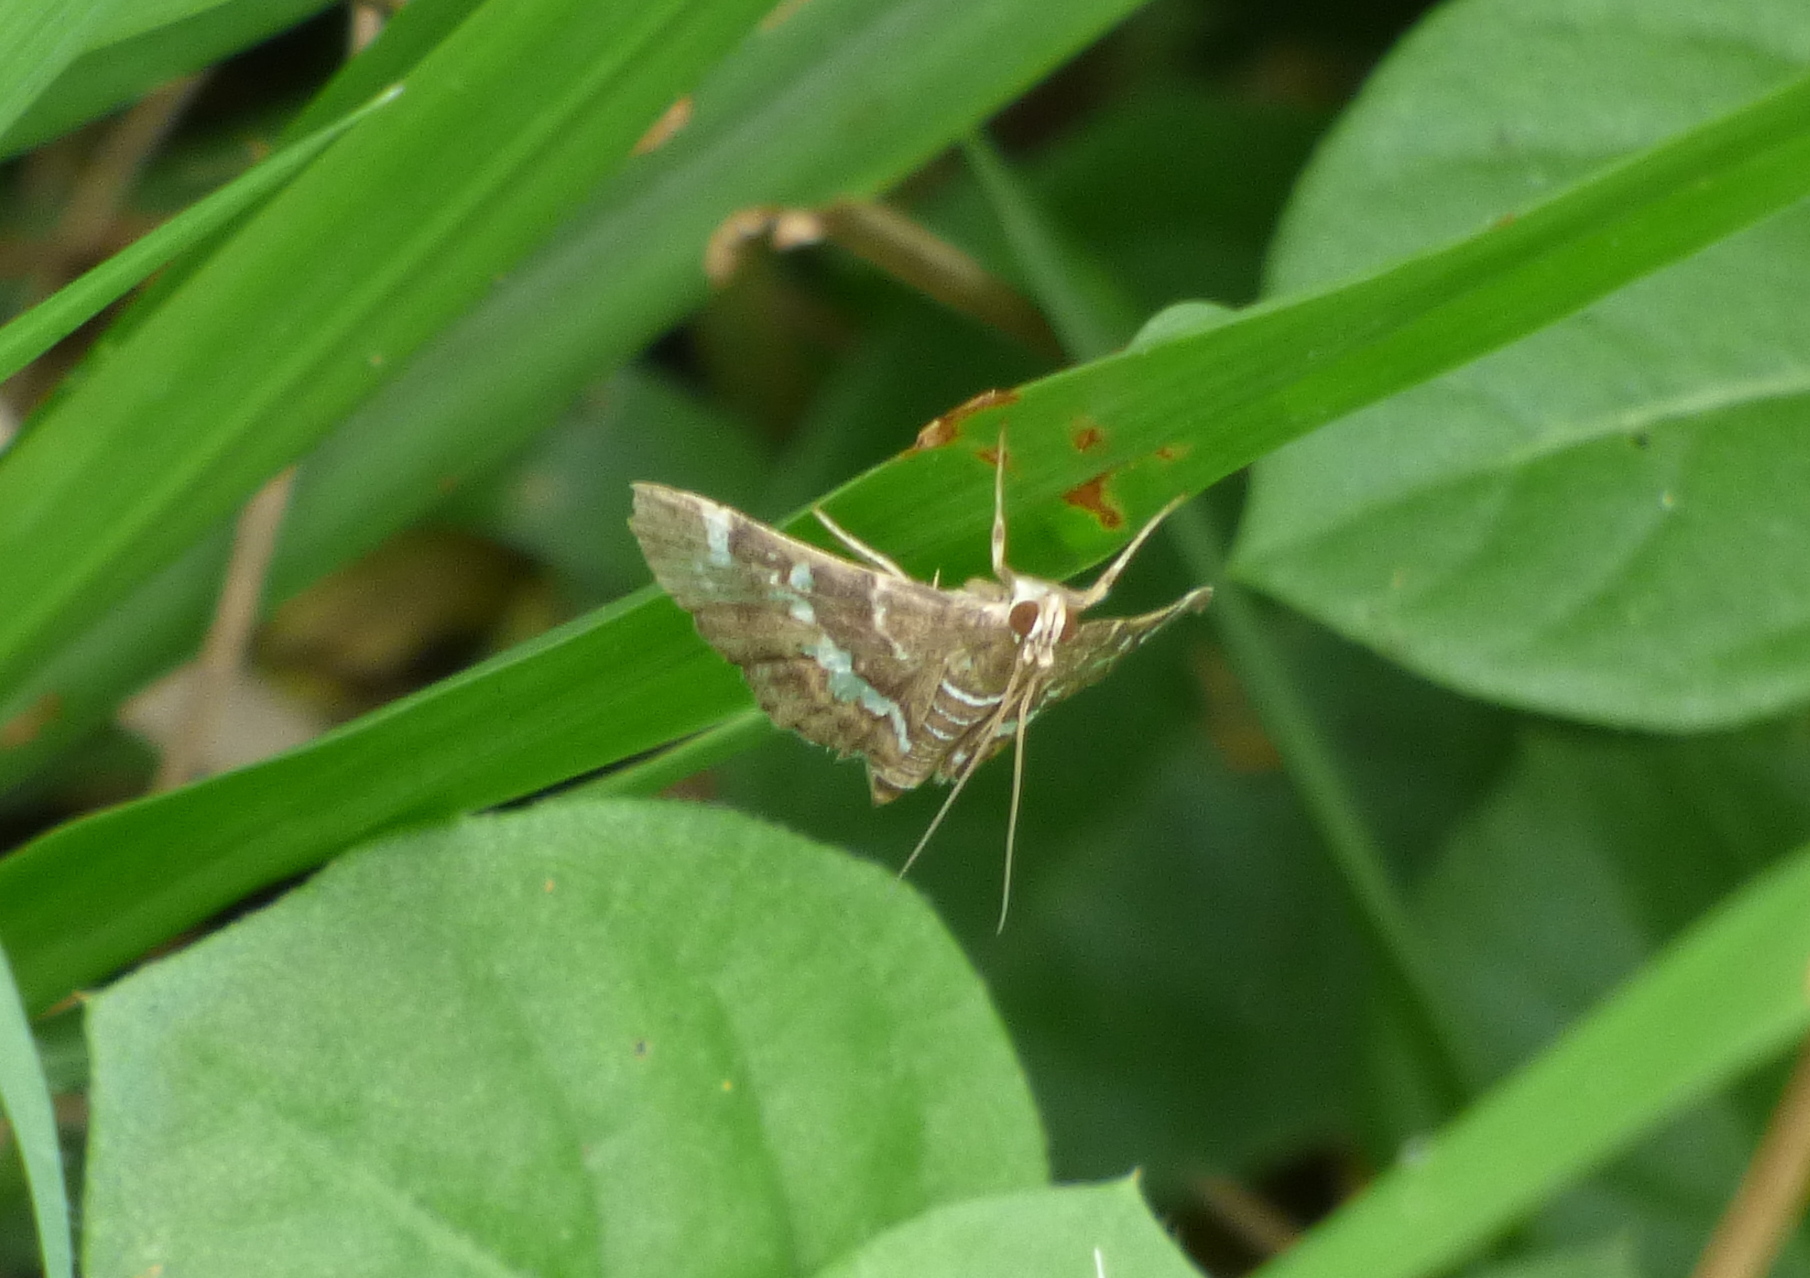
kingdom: Animalia
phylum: Arthropoda
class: Insecta
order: Lepidoptera
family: Crambidae
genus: Hymenia
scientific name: Hymenia perspectalis
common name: Spotted beet webworm
